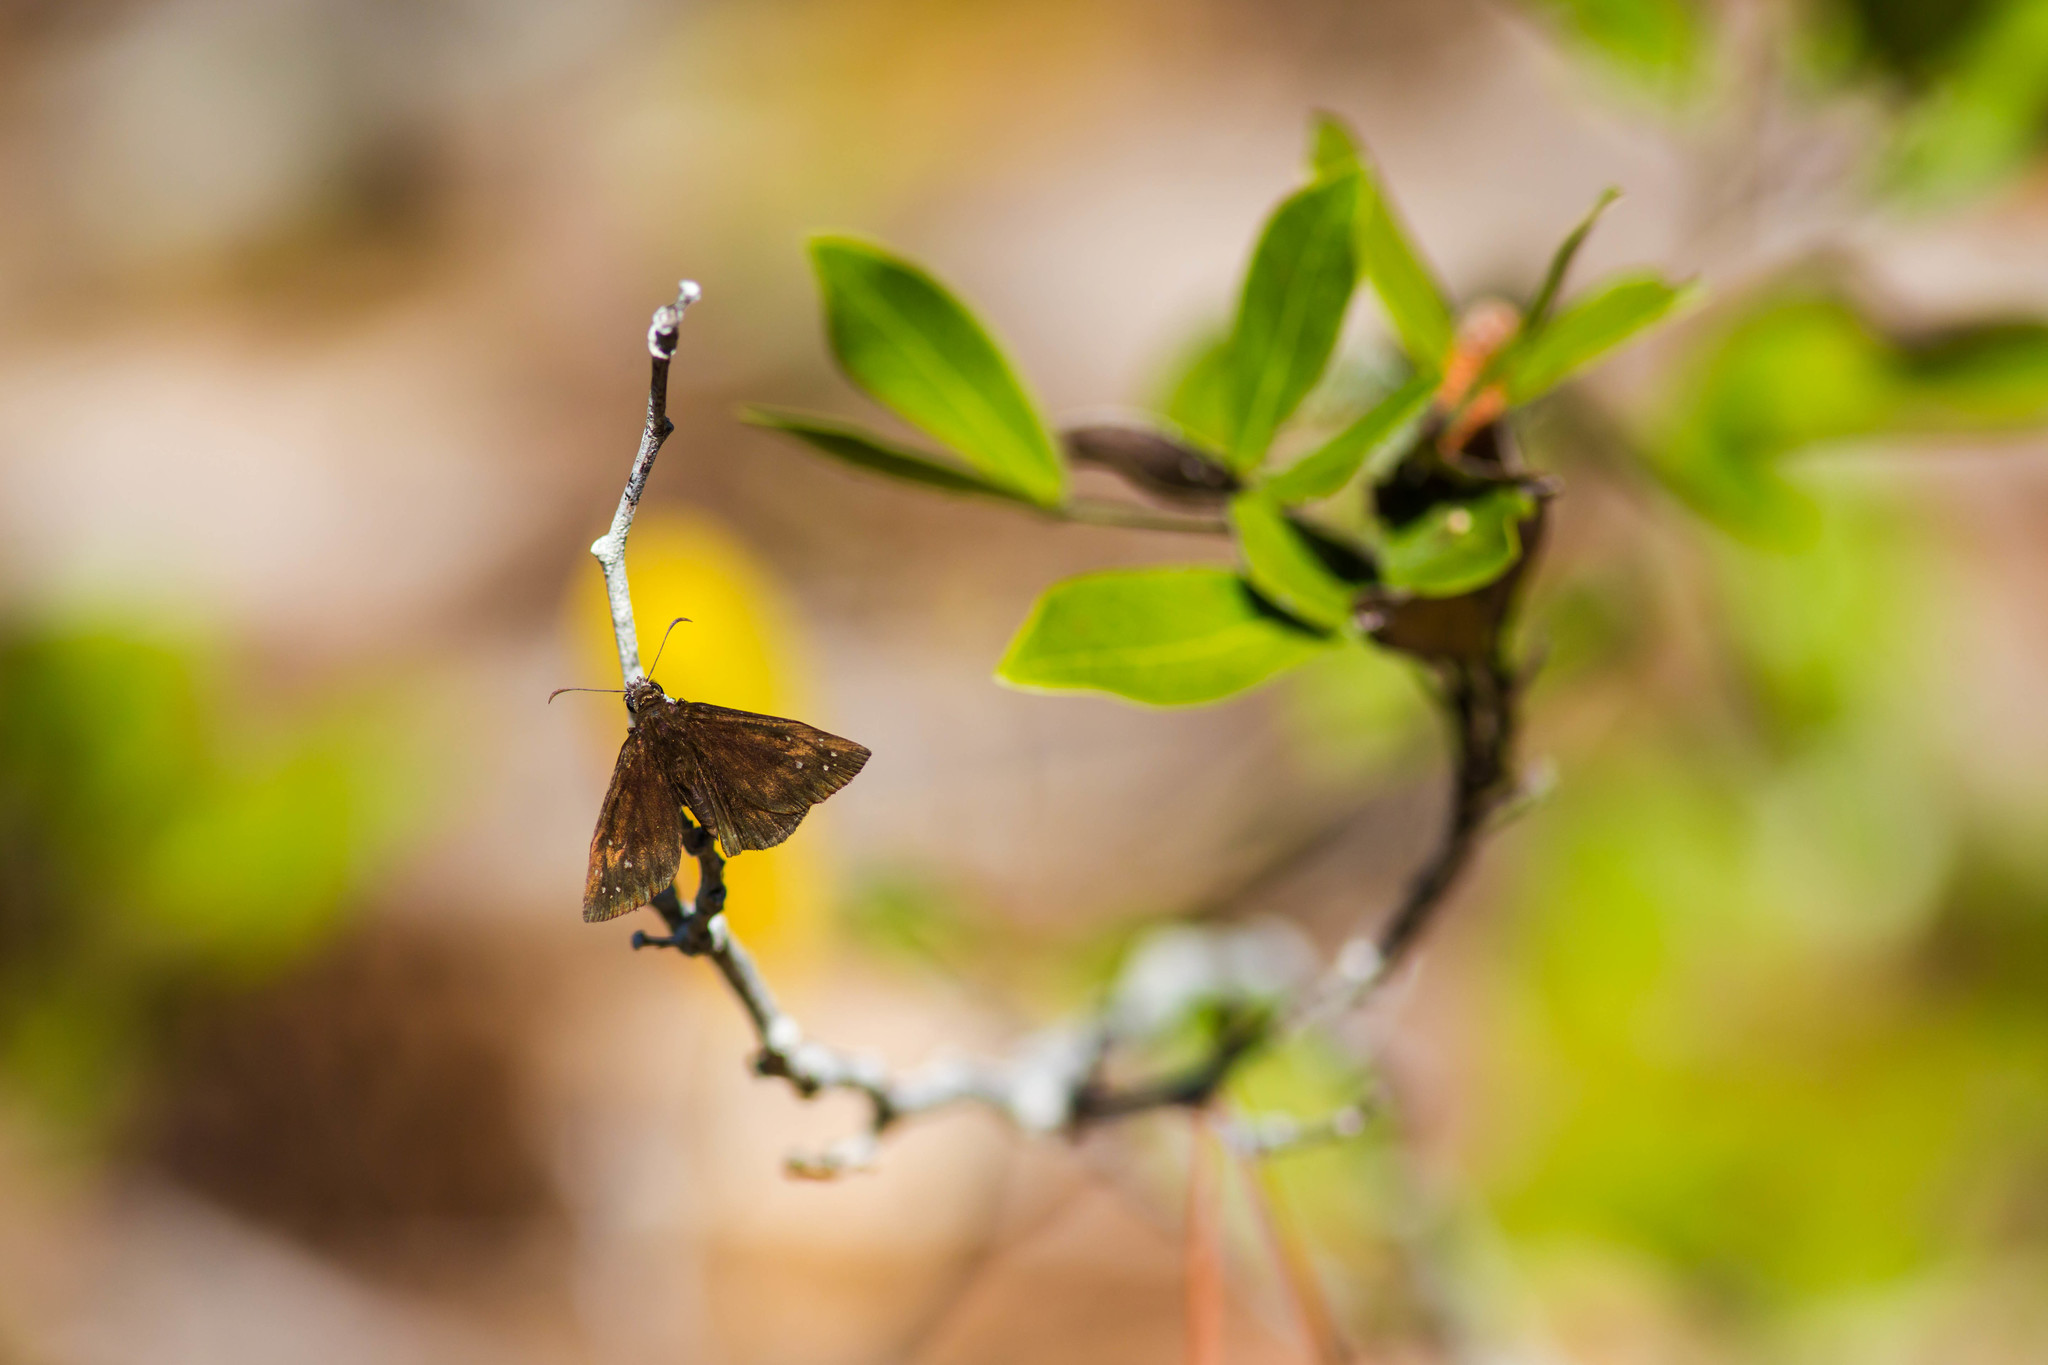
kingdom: Animalia
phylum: Arthropoda
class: Insecta
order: Lepidoptera
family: Hesperiidae
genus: Ephyriades
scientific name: Ephyriades brunnea
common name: Florida duskywing
